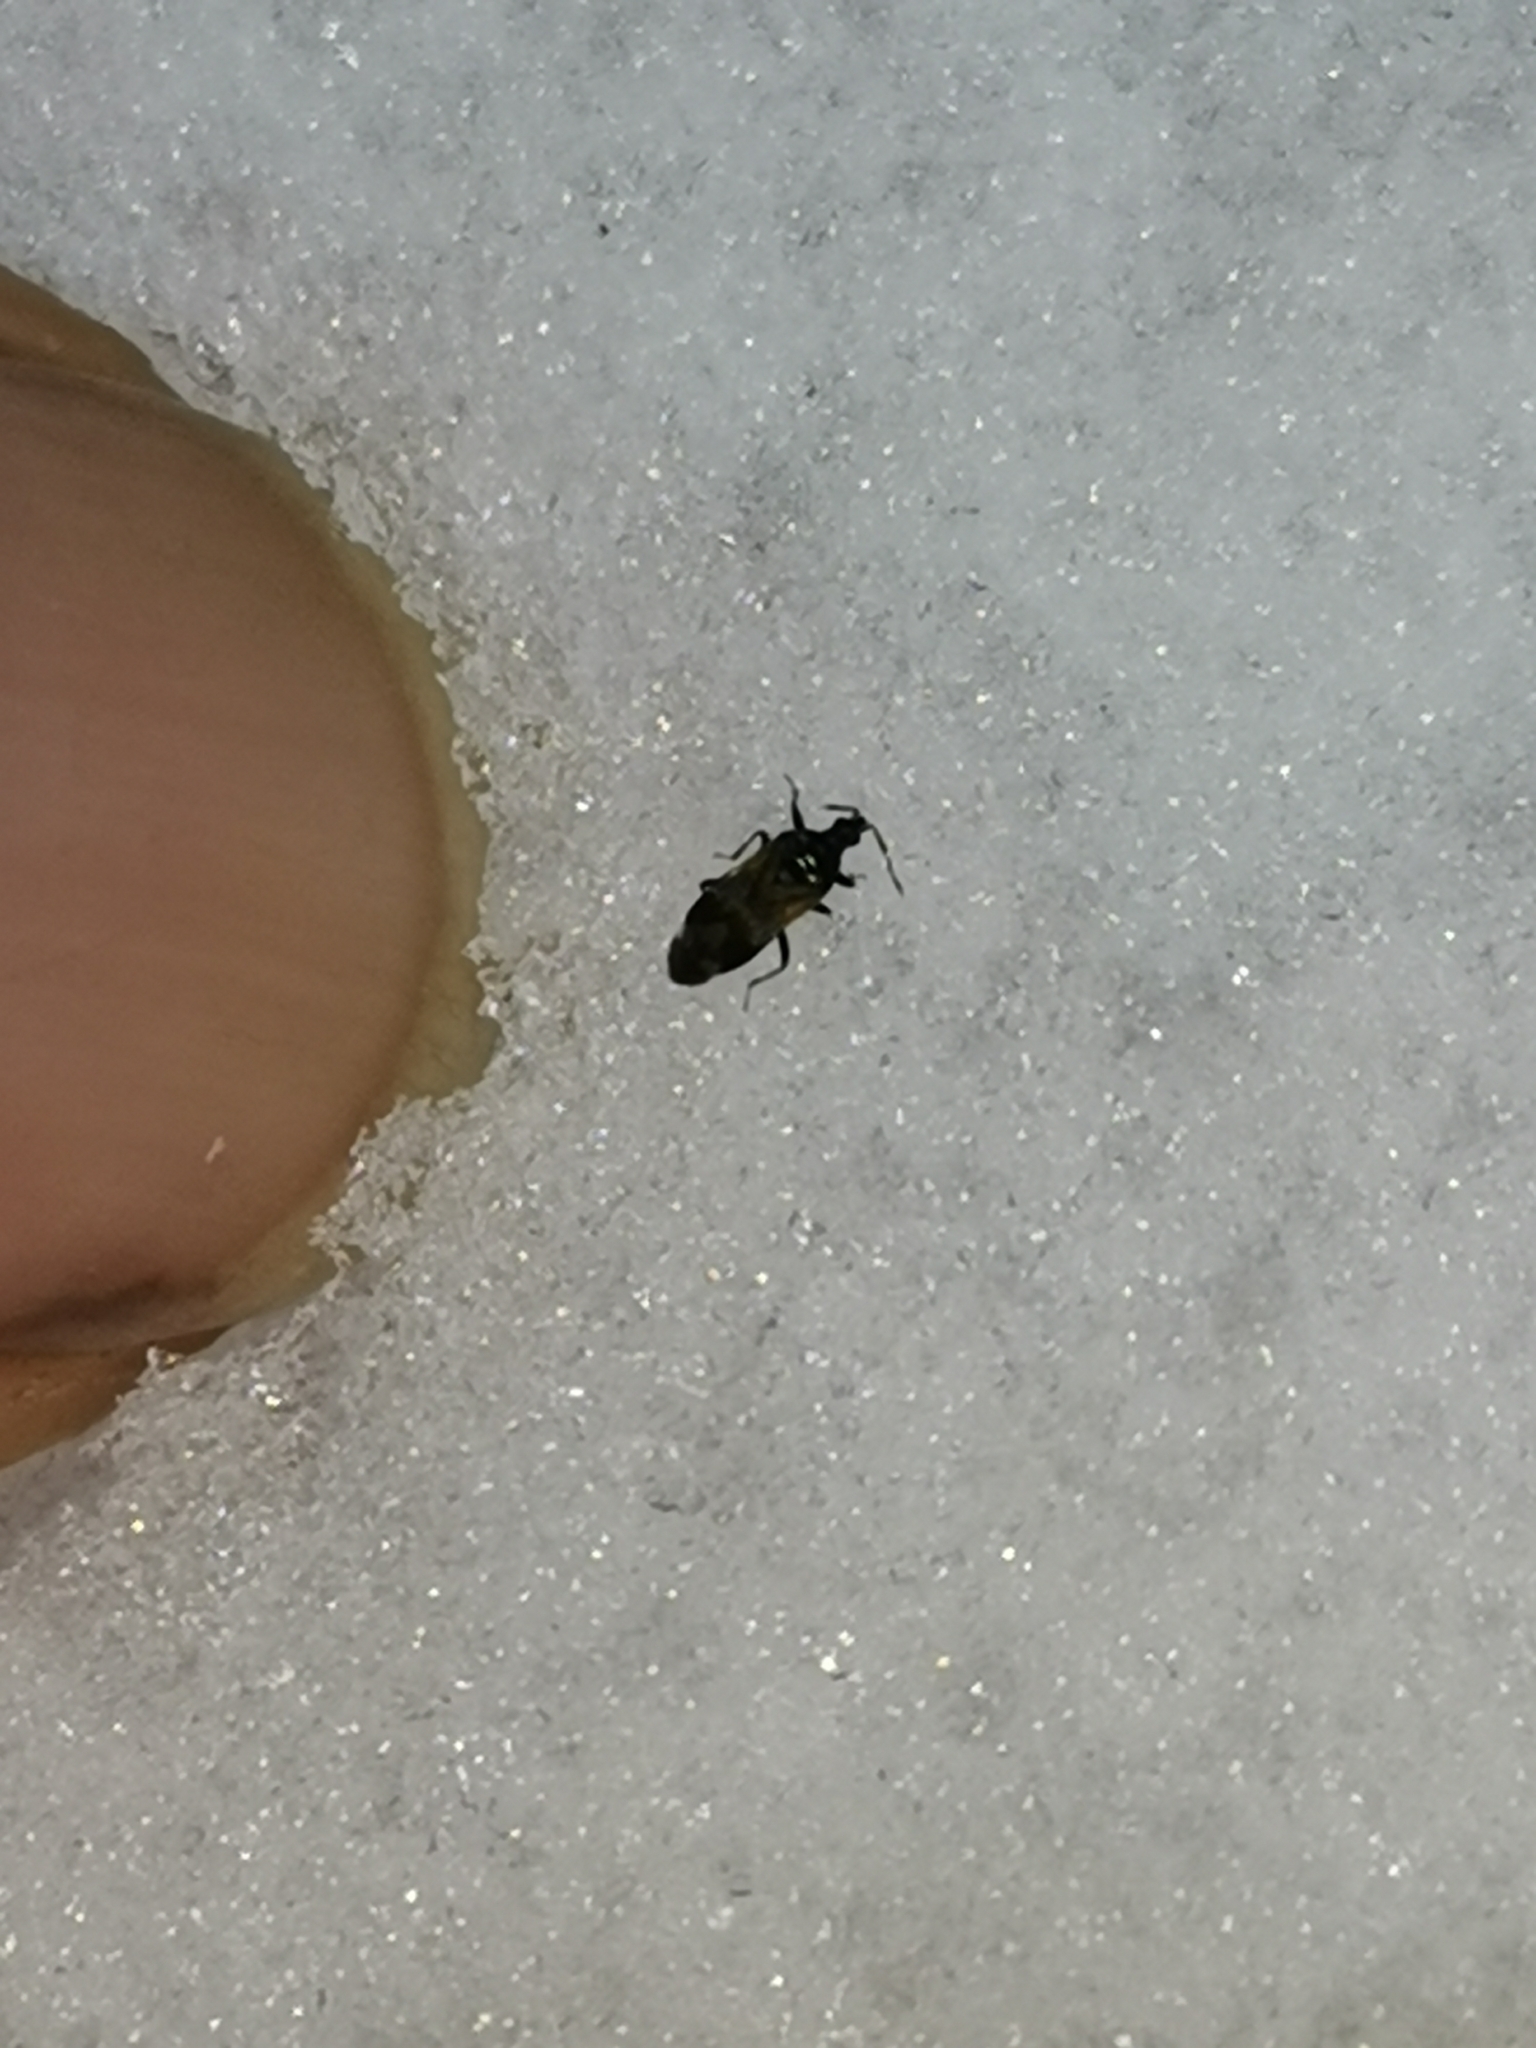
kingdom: Animalia
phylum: Arthropoda
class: Insecta
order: Hemiptera
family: Anthocoridae
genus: Anthocoris
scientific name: Anthocoris confusus
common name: Minute pirate bug
